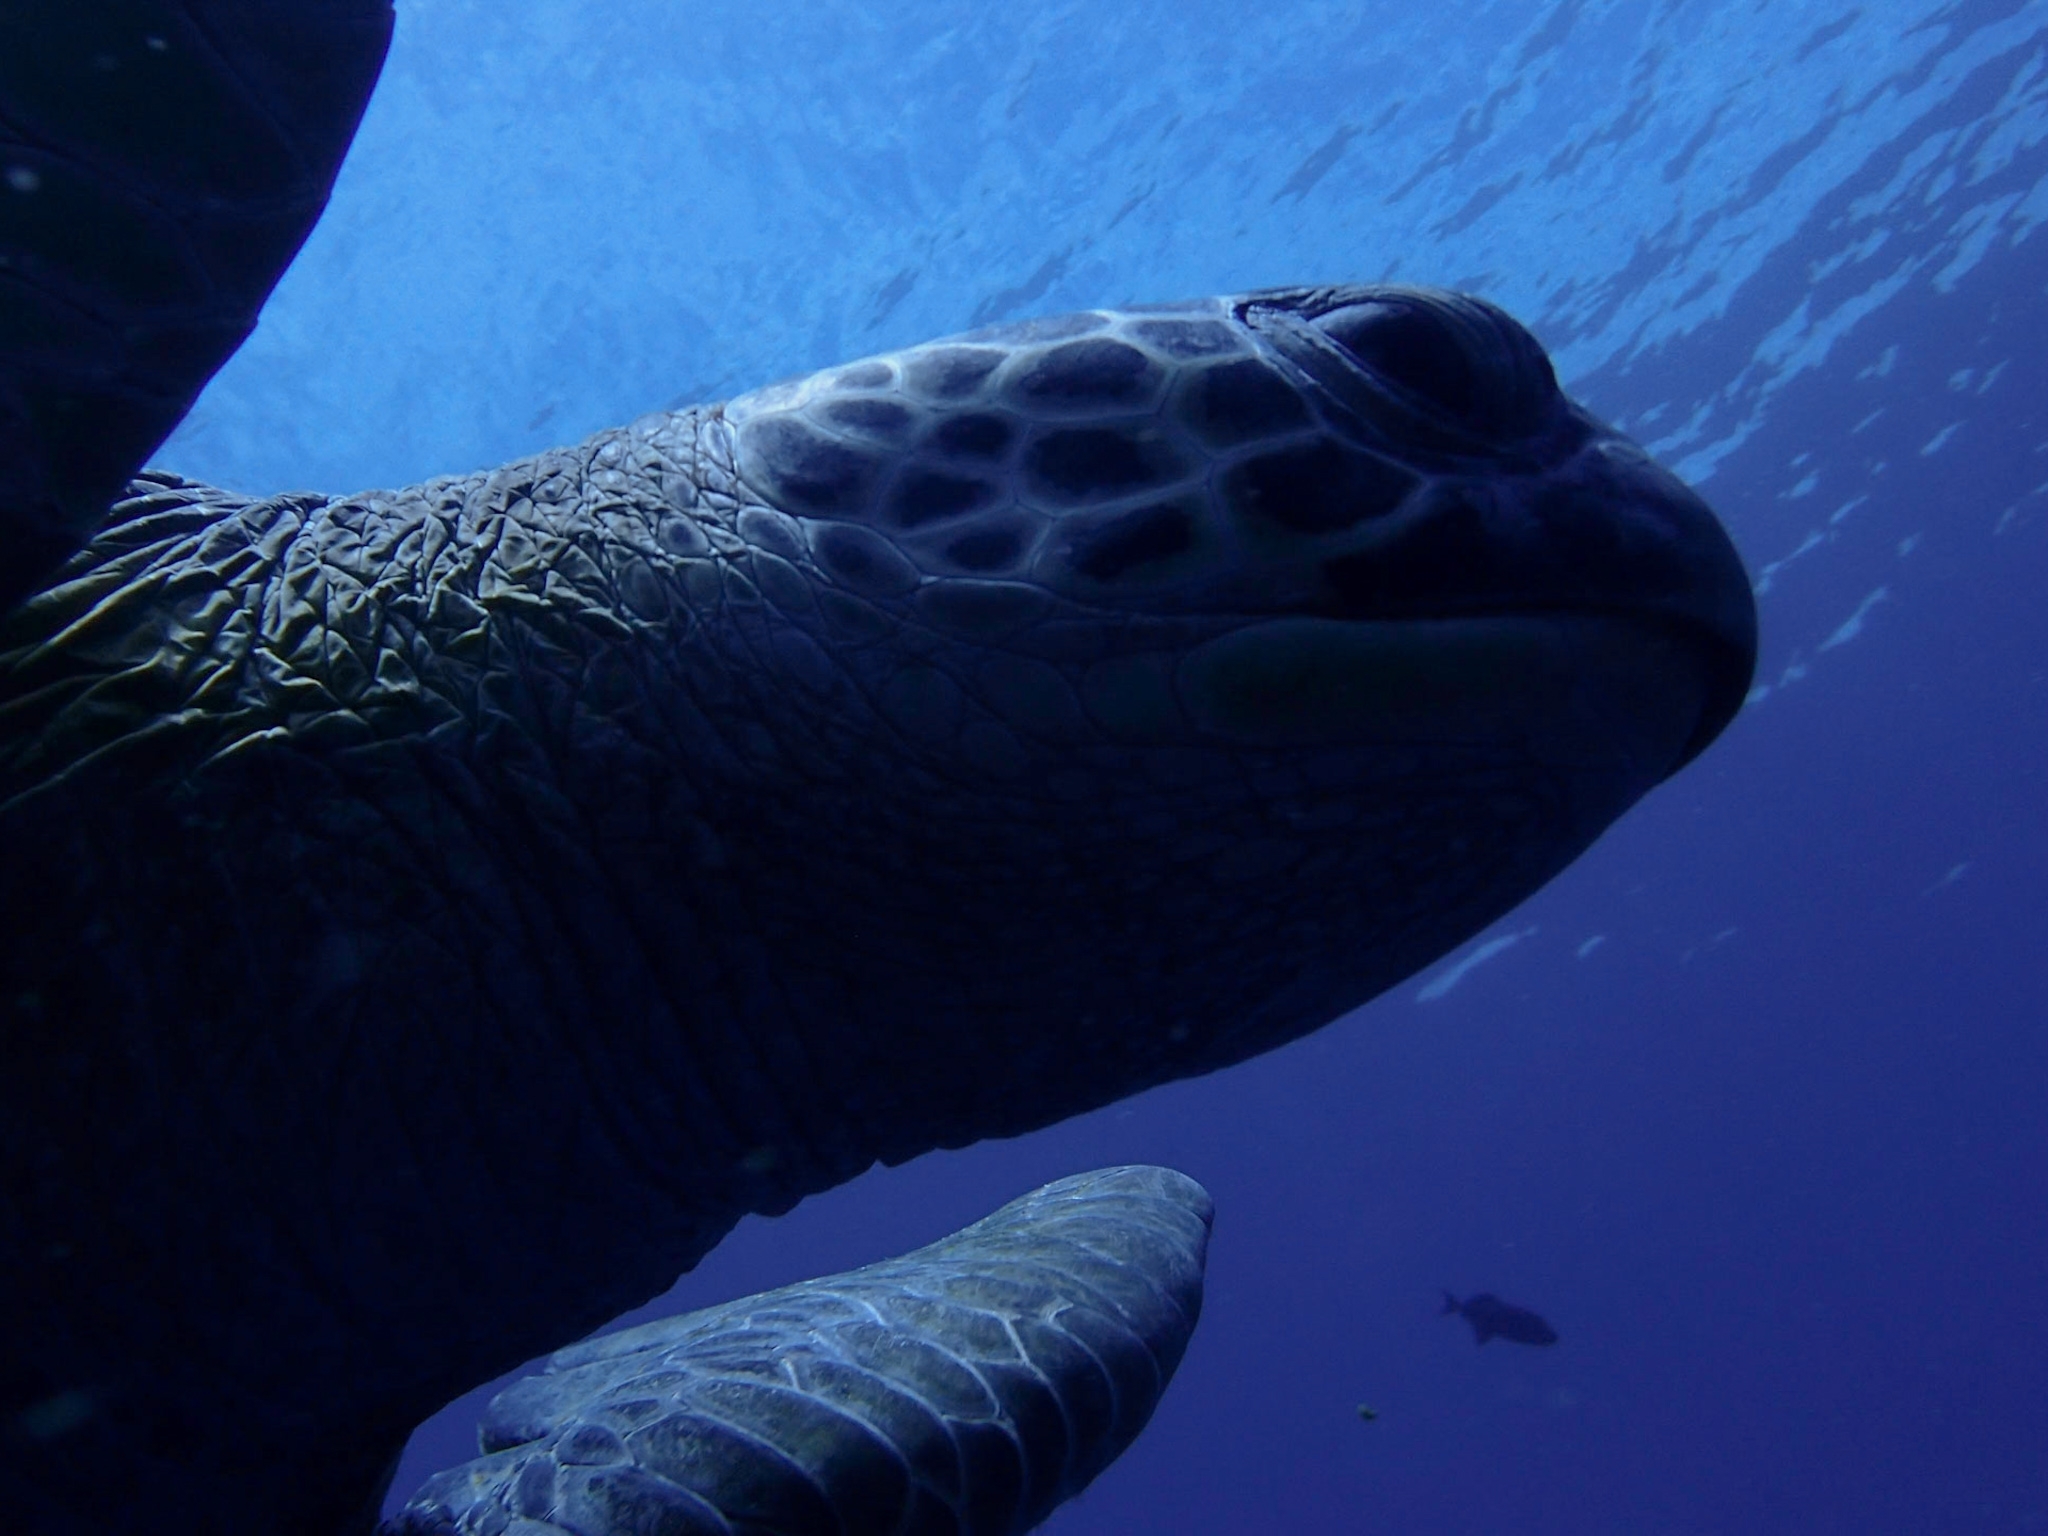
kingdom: Animalia
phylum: Chordata
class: Testudines
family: Cheloniidae
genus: Chelonia
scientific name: Chelonia mydas
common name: Green turtle
